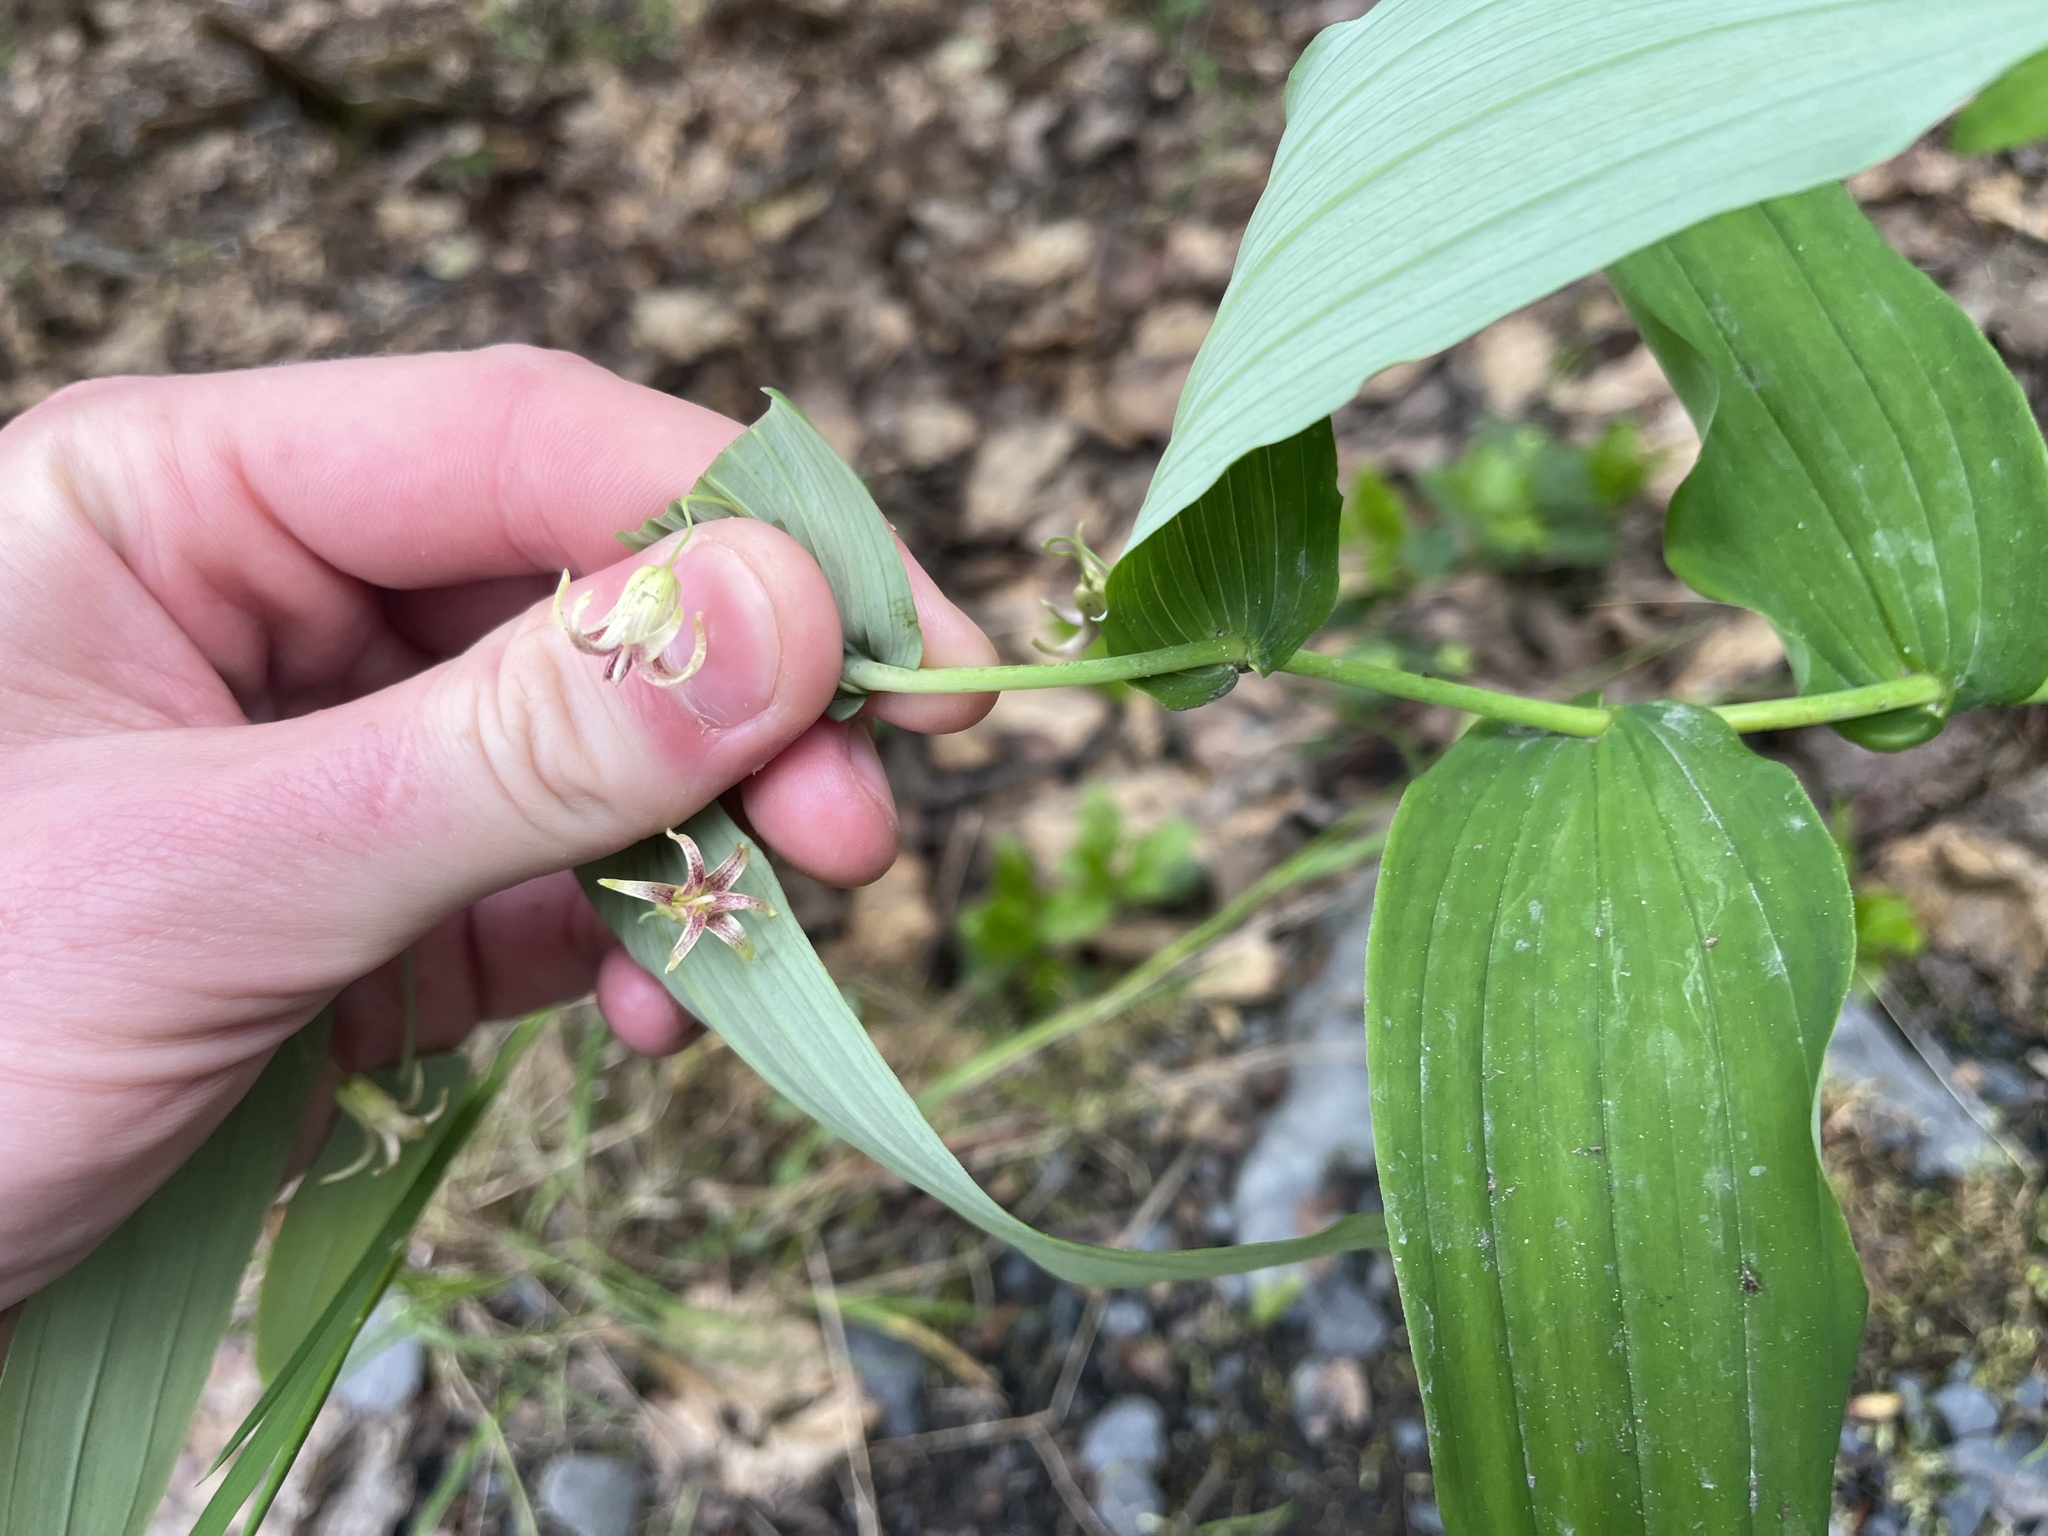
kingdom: Plantae
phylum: Tracheophyta
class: Liliopsida
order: Liliales
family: Liliaceae
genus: Streptopus
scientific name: Streptopus amplexifolius
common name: Clasp twisted stalk
